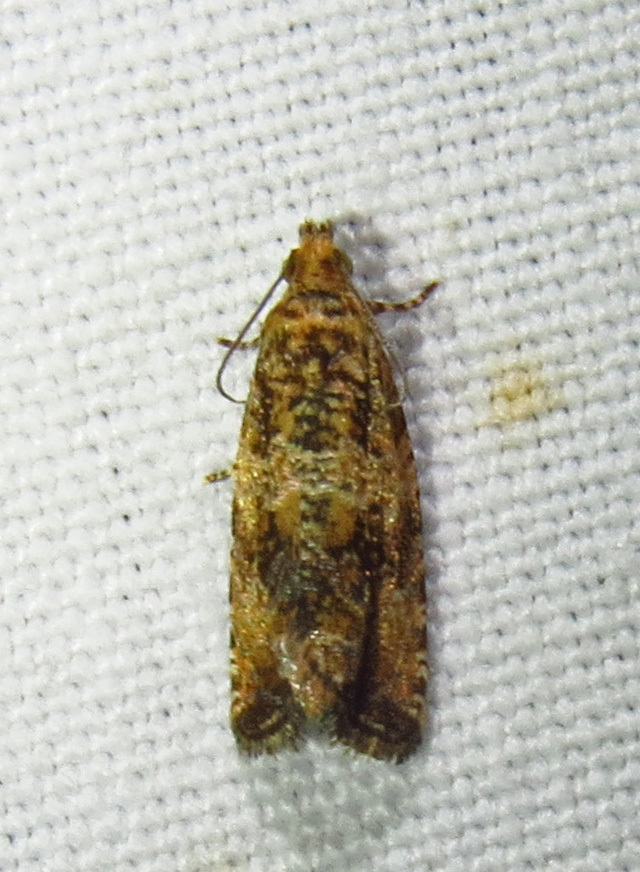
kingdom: Animalia
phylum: Arthropoda
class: Insecta
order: Lepidoptera
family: Tortricidae
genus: Celypha
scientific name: Celypha cespitana
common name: Thyme marble
